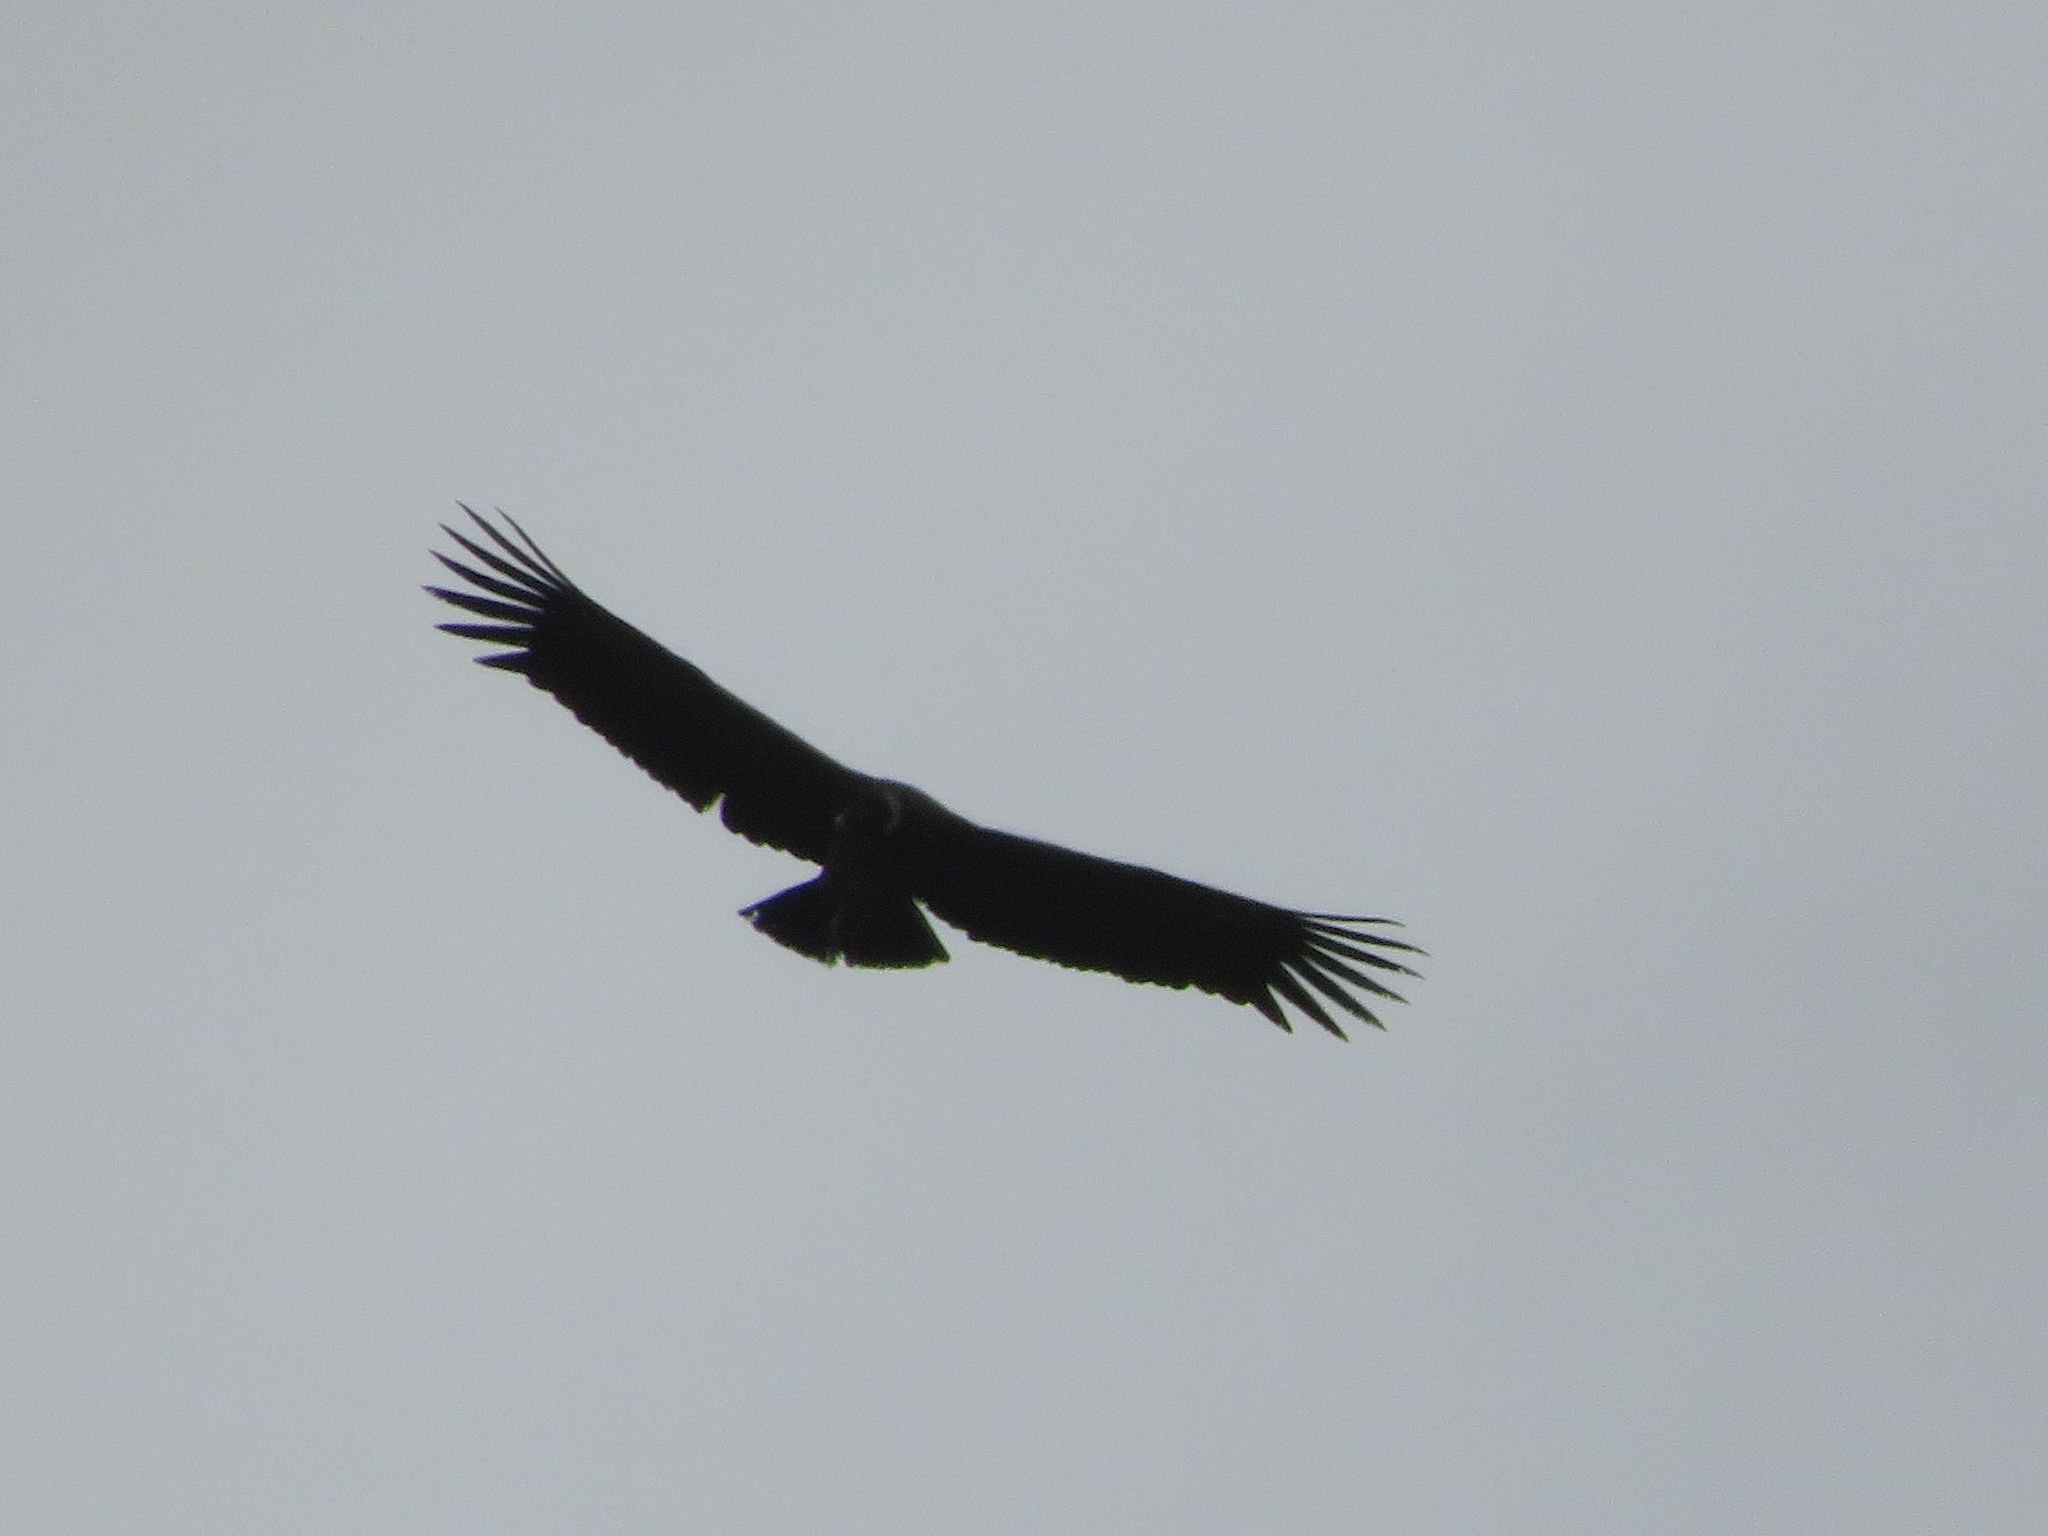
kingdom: Animalia
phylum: Chordata
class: Aves
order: Accipitriformes
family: Cathartidae
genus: Vultur
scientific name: Vultur gryphus
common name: Andean condor
